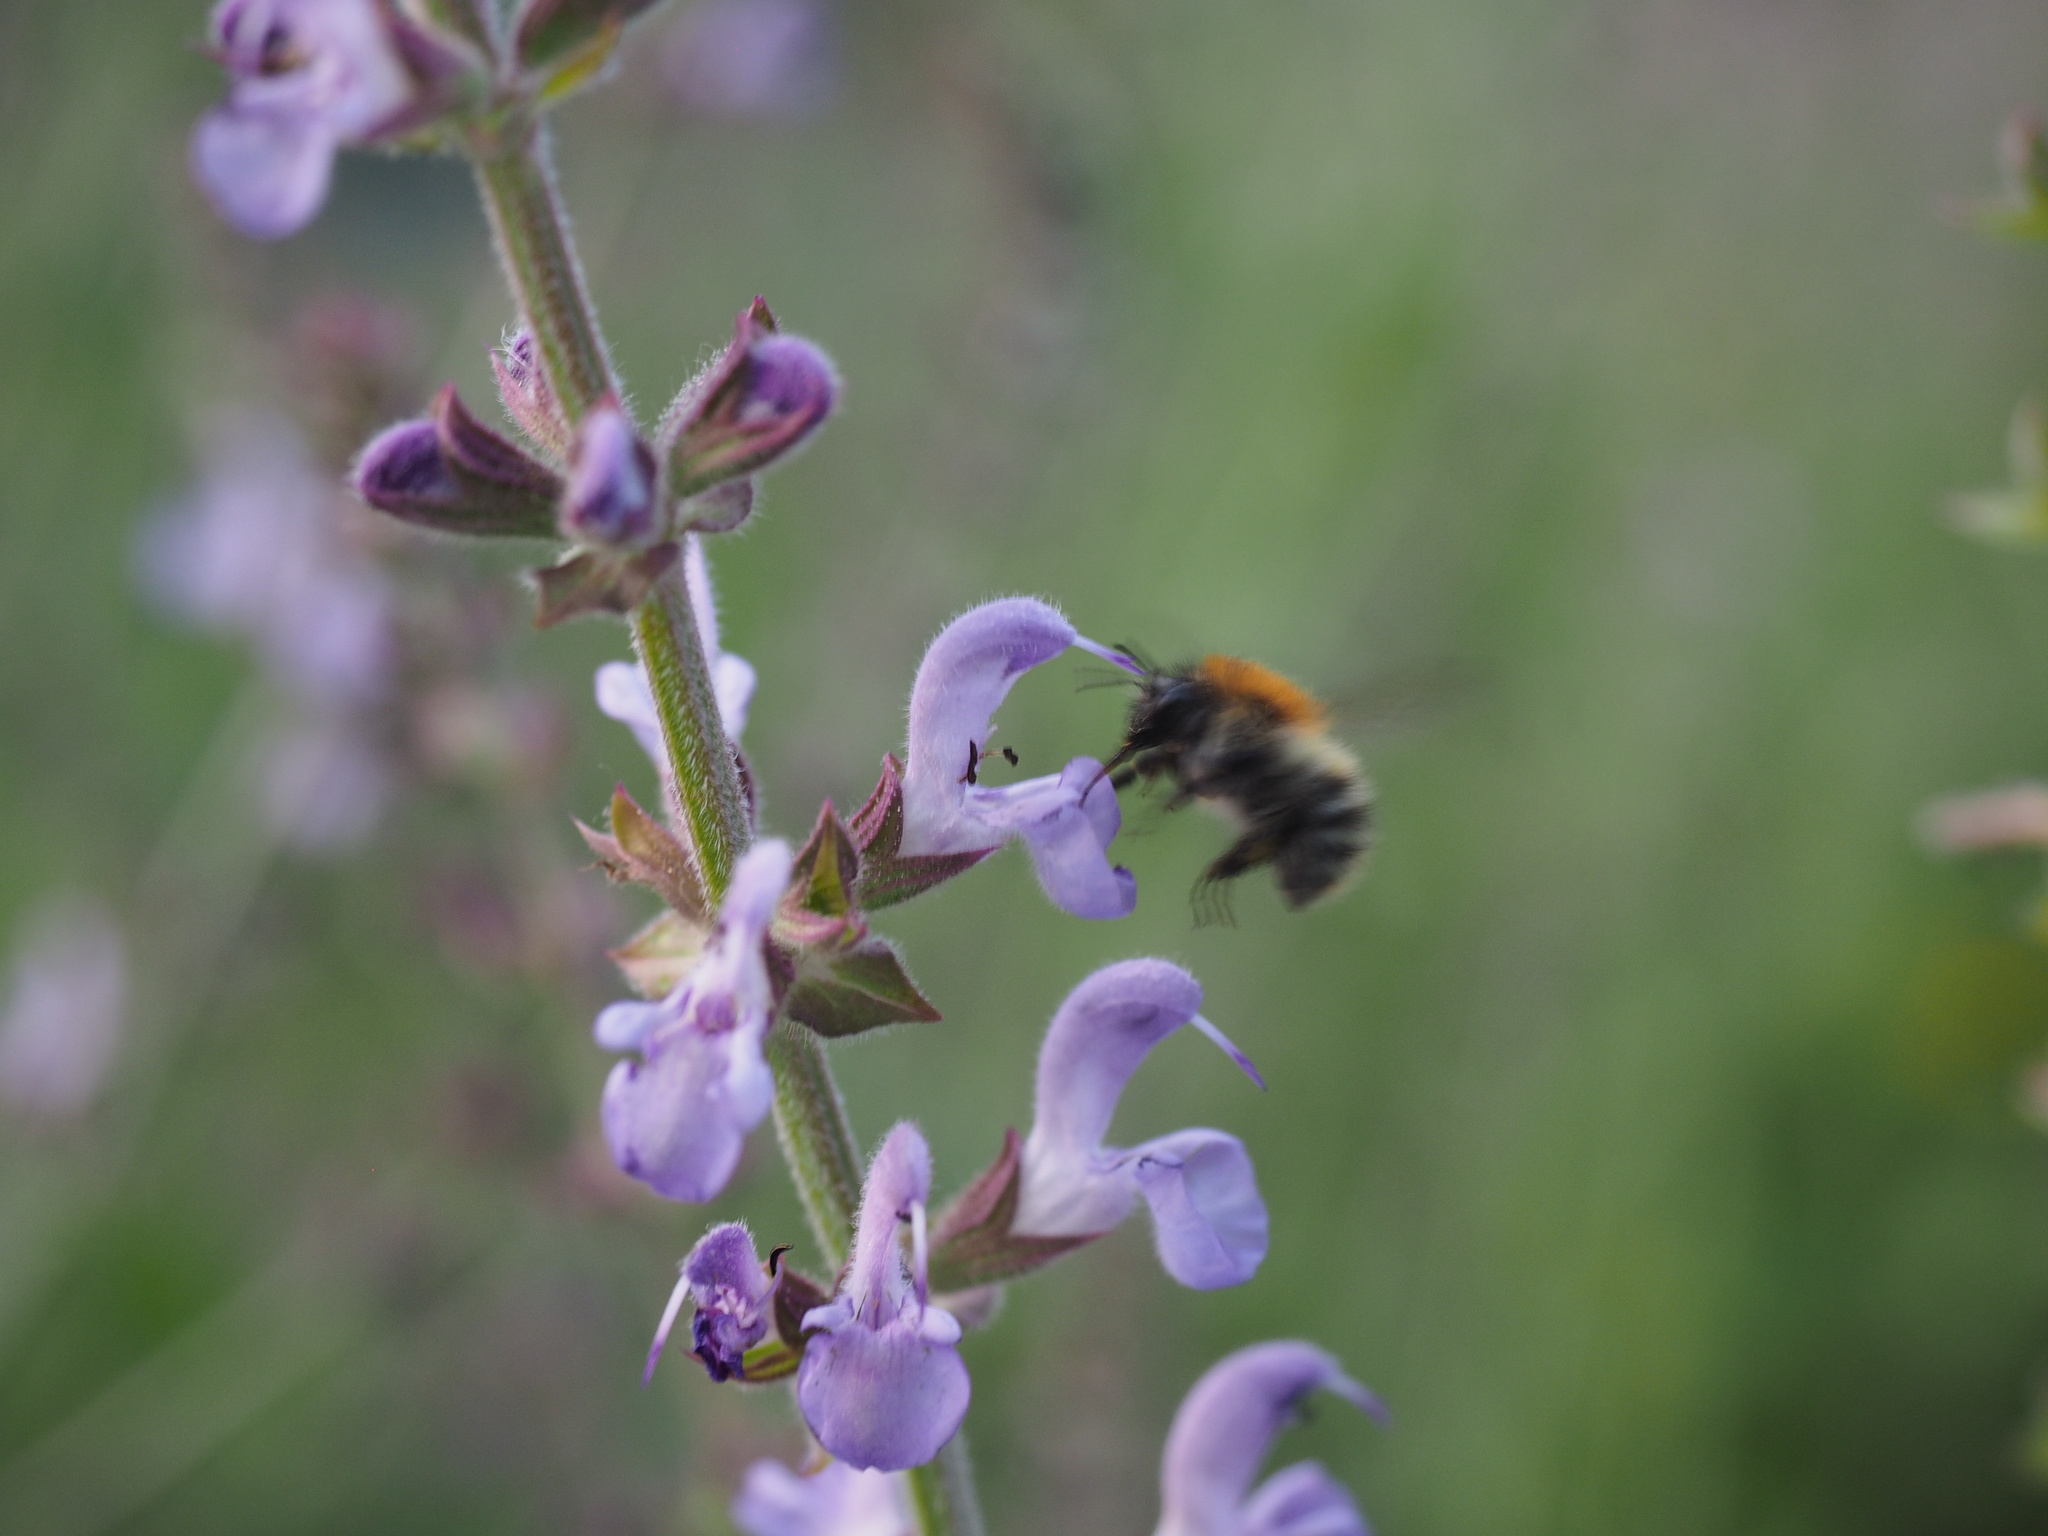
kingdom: Animalia
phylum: Arthropoda
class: Insecta
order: Hymenoptera
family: Apidae
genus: Bombus
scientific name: Bombus pascuorum
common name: Common carder bee
